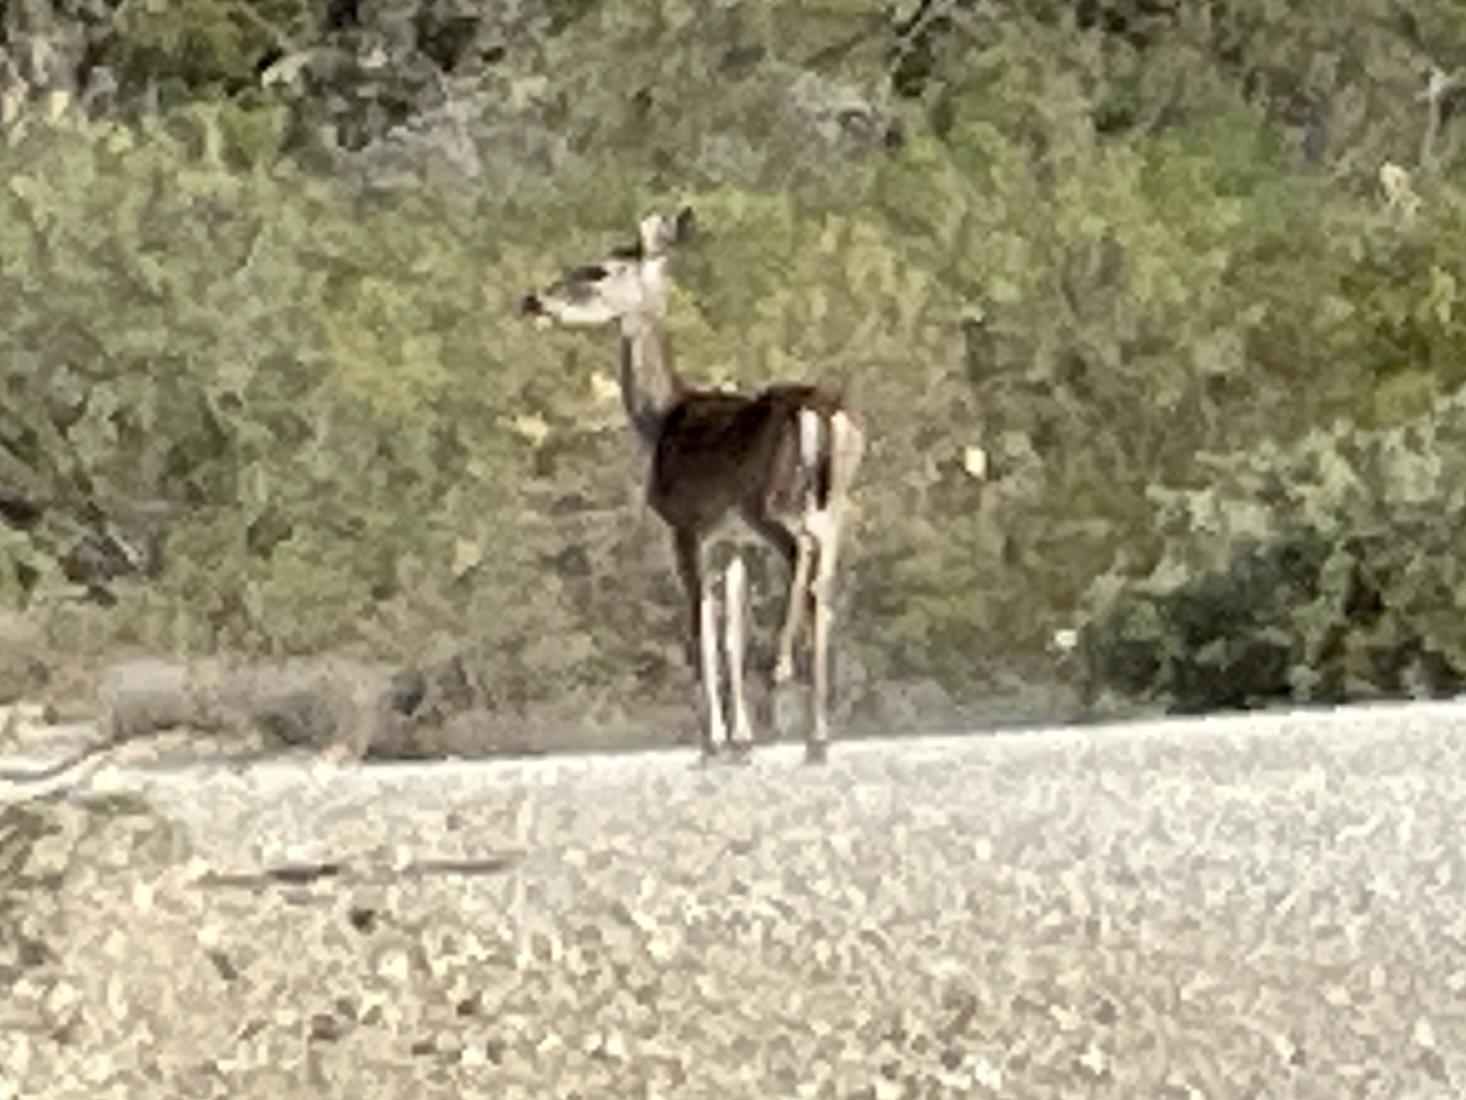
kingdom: Animalia
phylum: Chordata
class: Mammalia
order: Artiodactyla
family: Cervidae
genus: Odocoileus
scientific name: Odocoileus virginianus
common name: White-tailed deer
